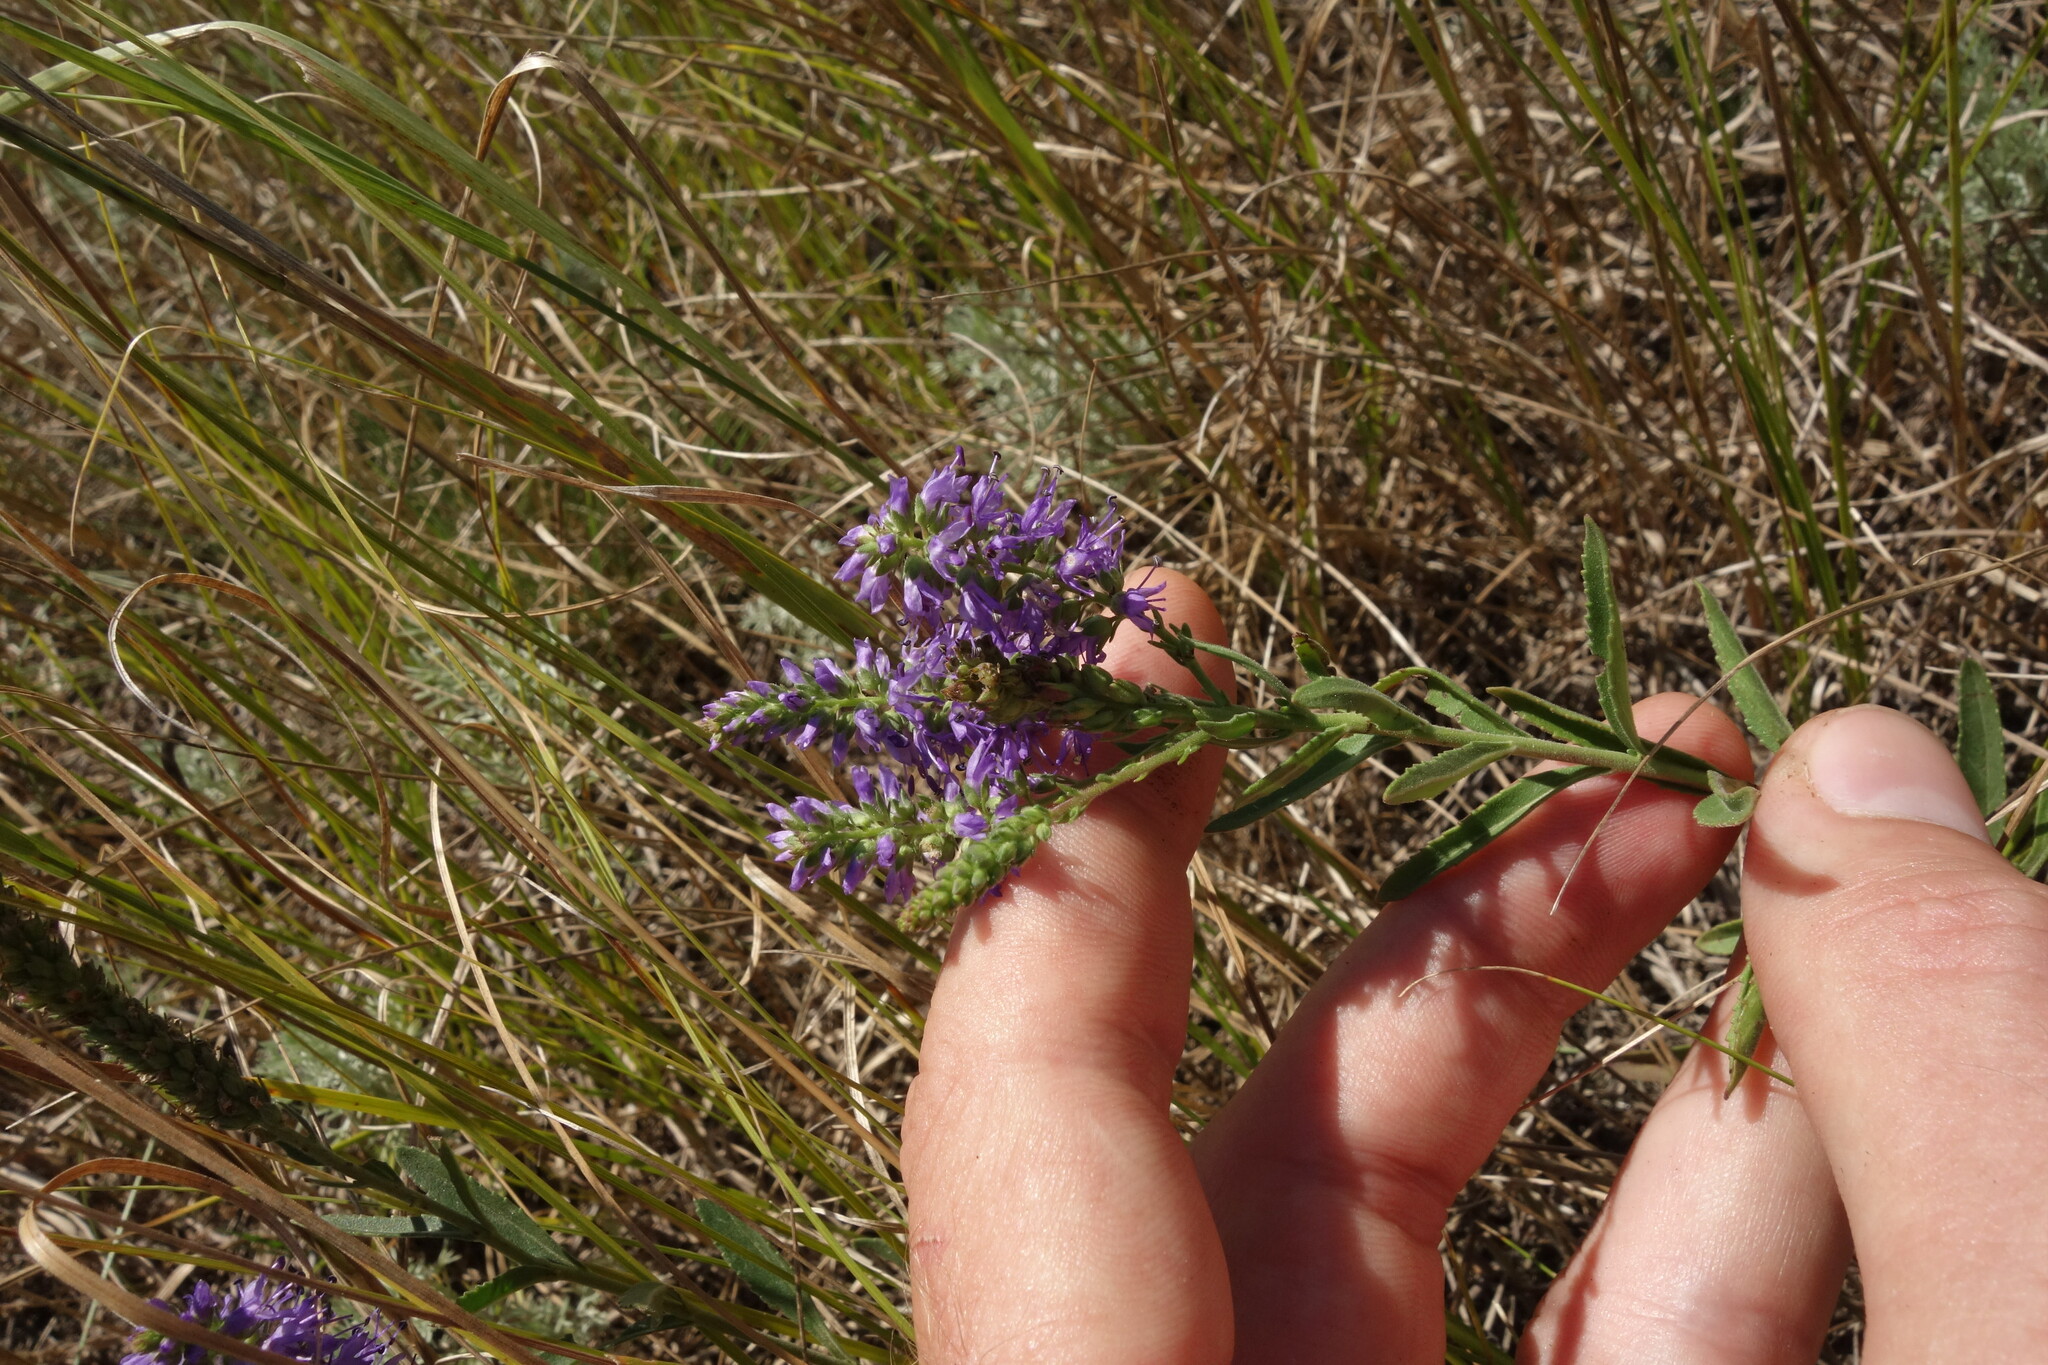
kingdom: Plantae
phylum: Tracheophyta
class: Magnoliopsida
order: Lamiales
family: Plantaginaceae
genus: Veronica
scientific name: Veronica spicata
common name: Spiked speedwell
